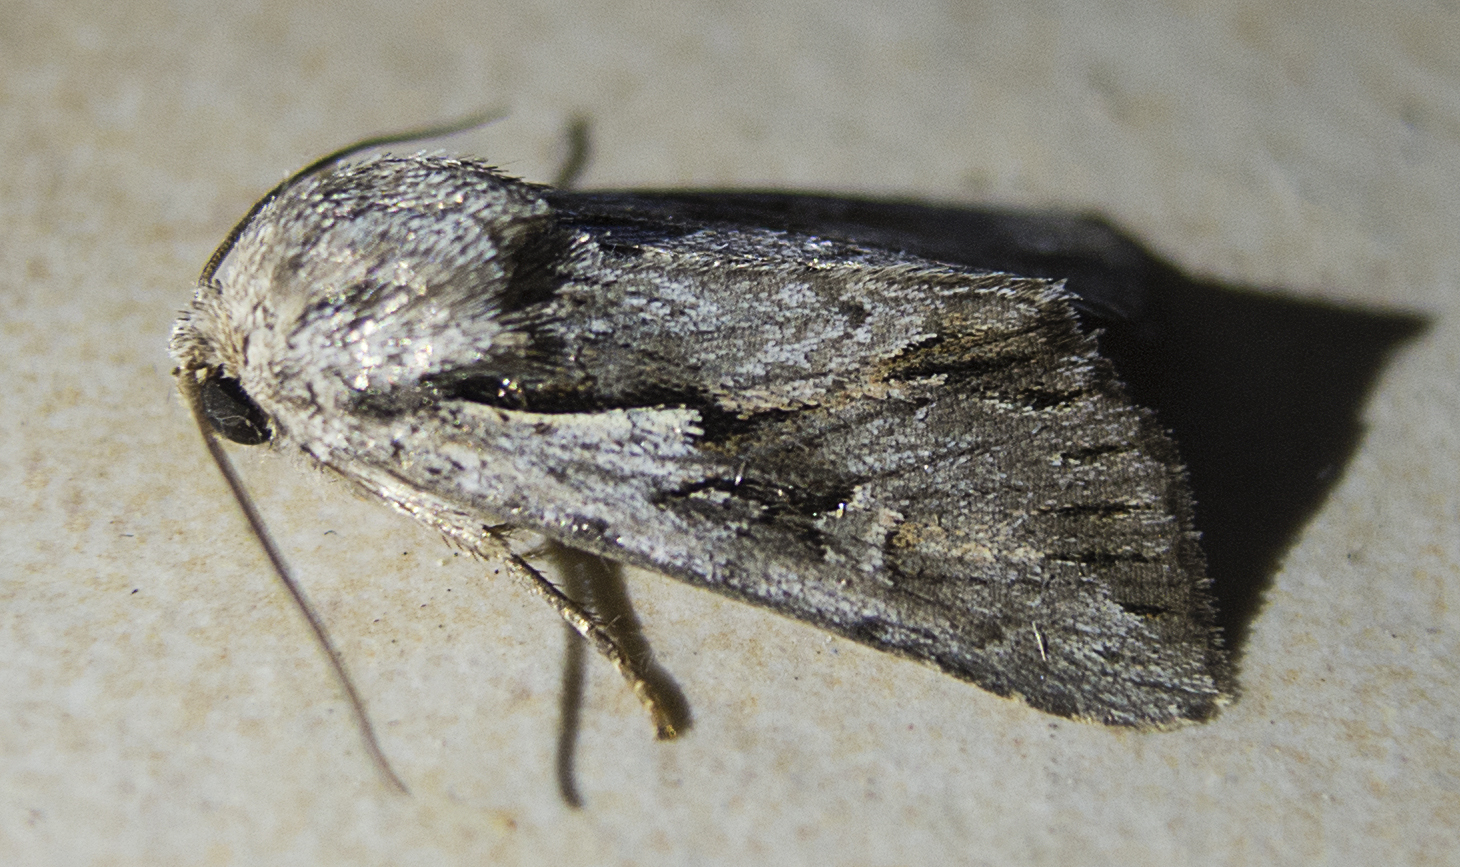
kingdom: Animalia
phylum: Arthropoda
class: Insecta
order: Lepidoptera
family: Noctuidae
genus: Chloantha
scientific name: Chloantha hyperici
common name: Pale-shouldered cloud
